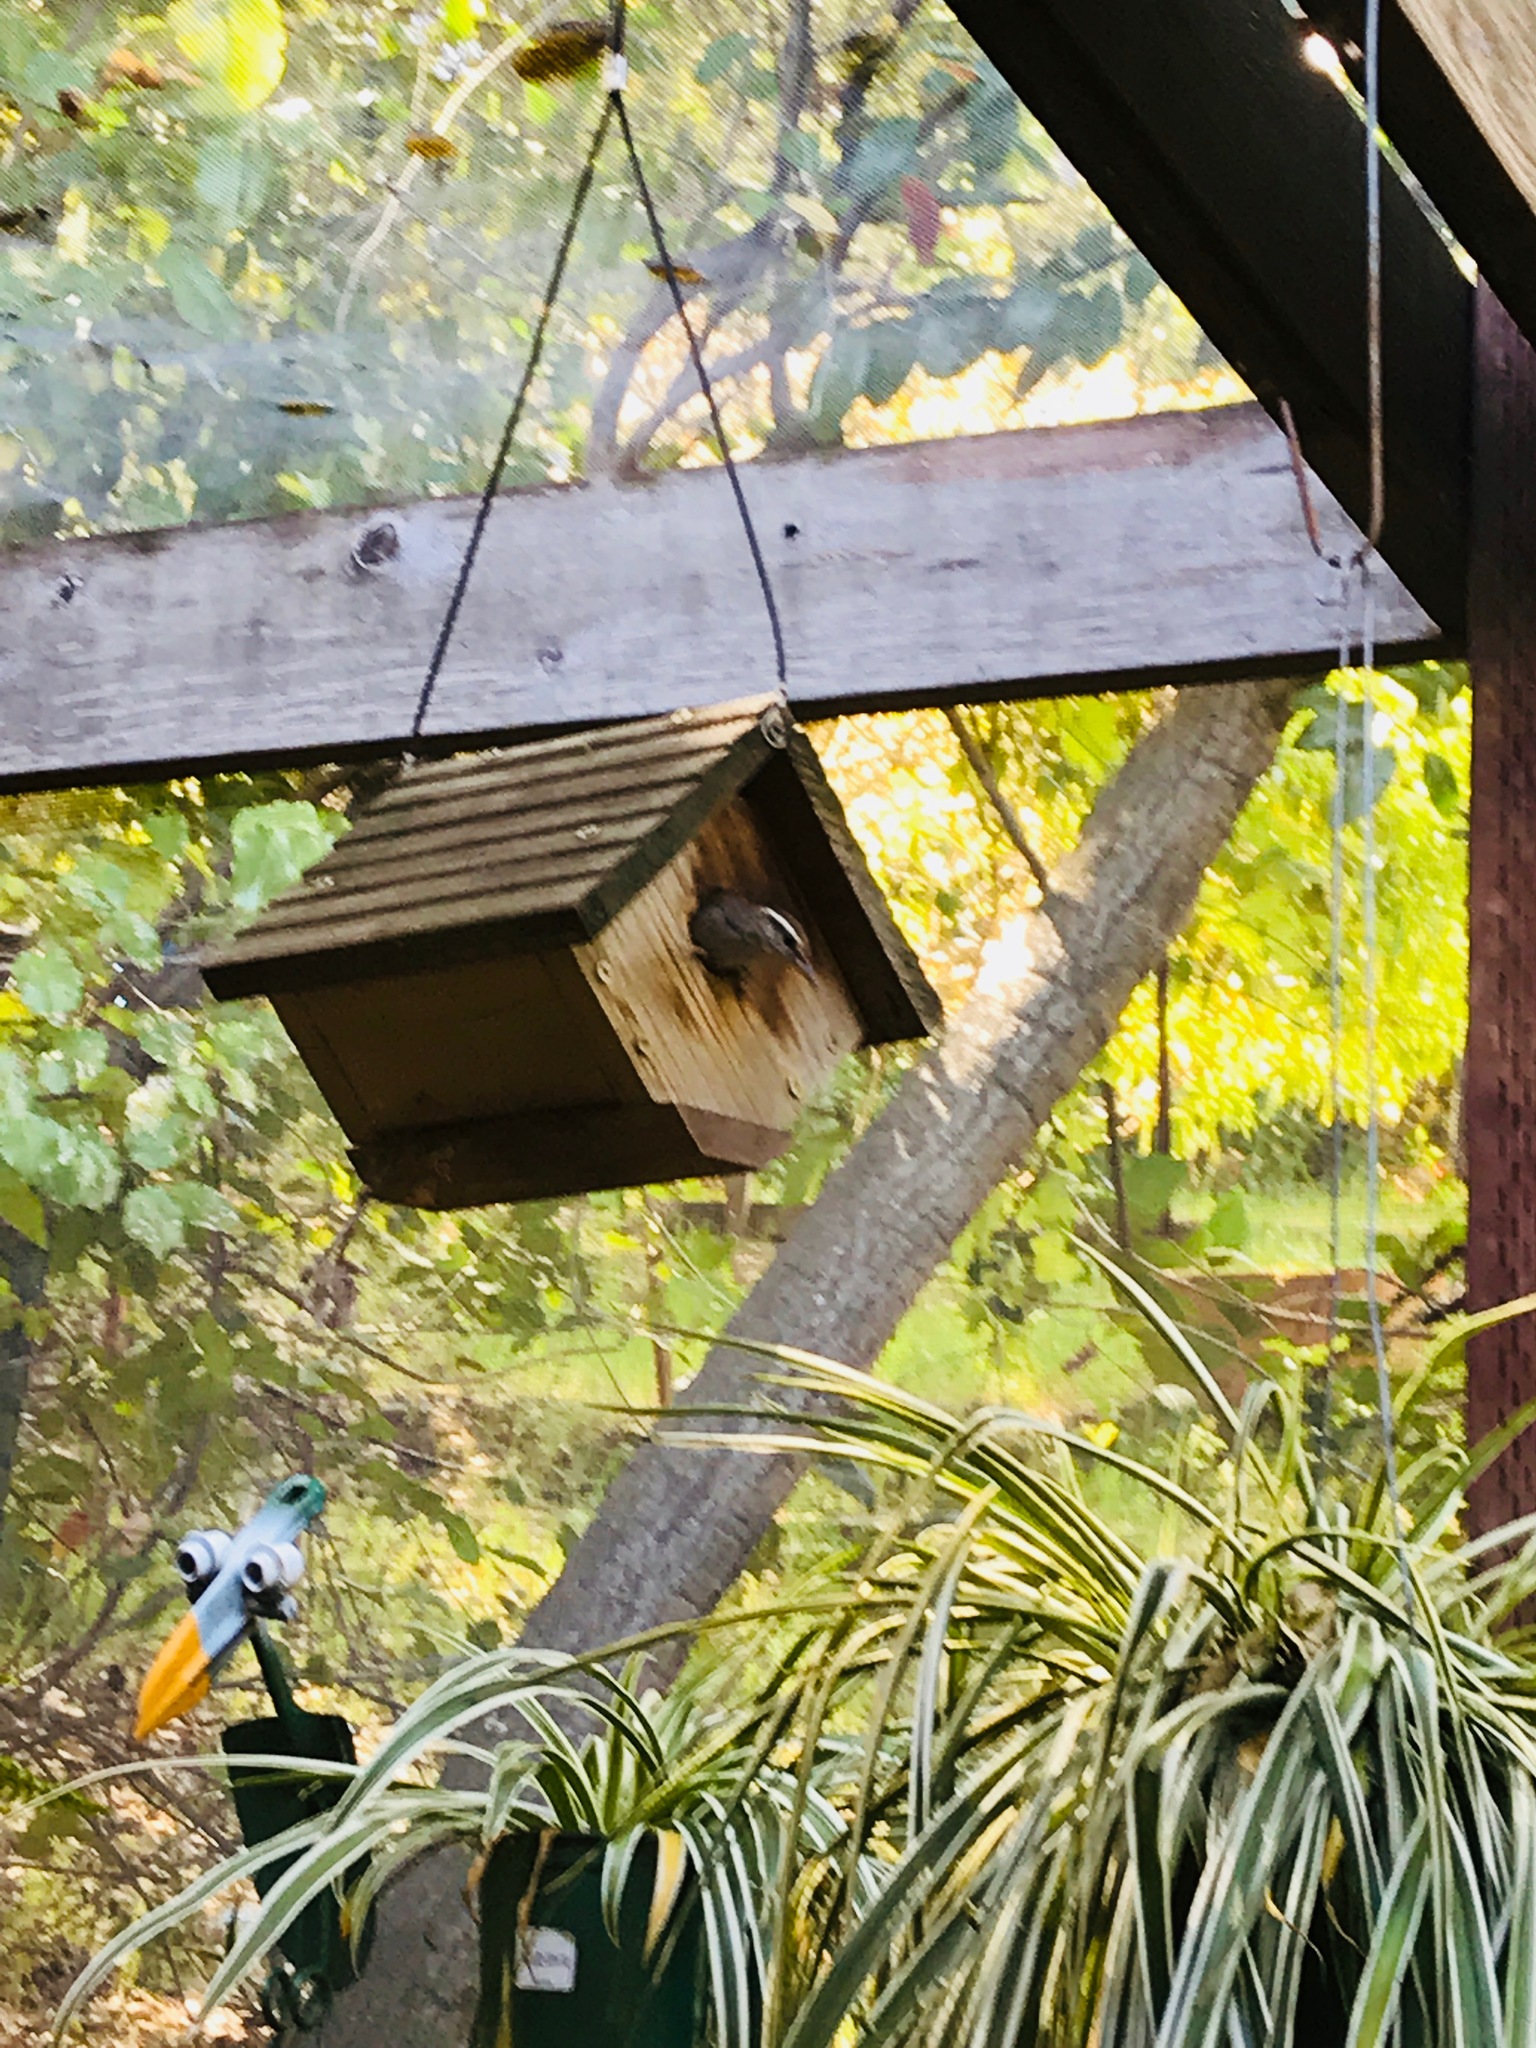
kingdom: Animalia
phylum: Chordata
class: Aves
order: Passeriformes
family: Troglodytidae
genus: Thryomanes
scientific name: Thryomanes bewickii
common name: Bewick's wren
